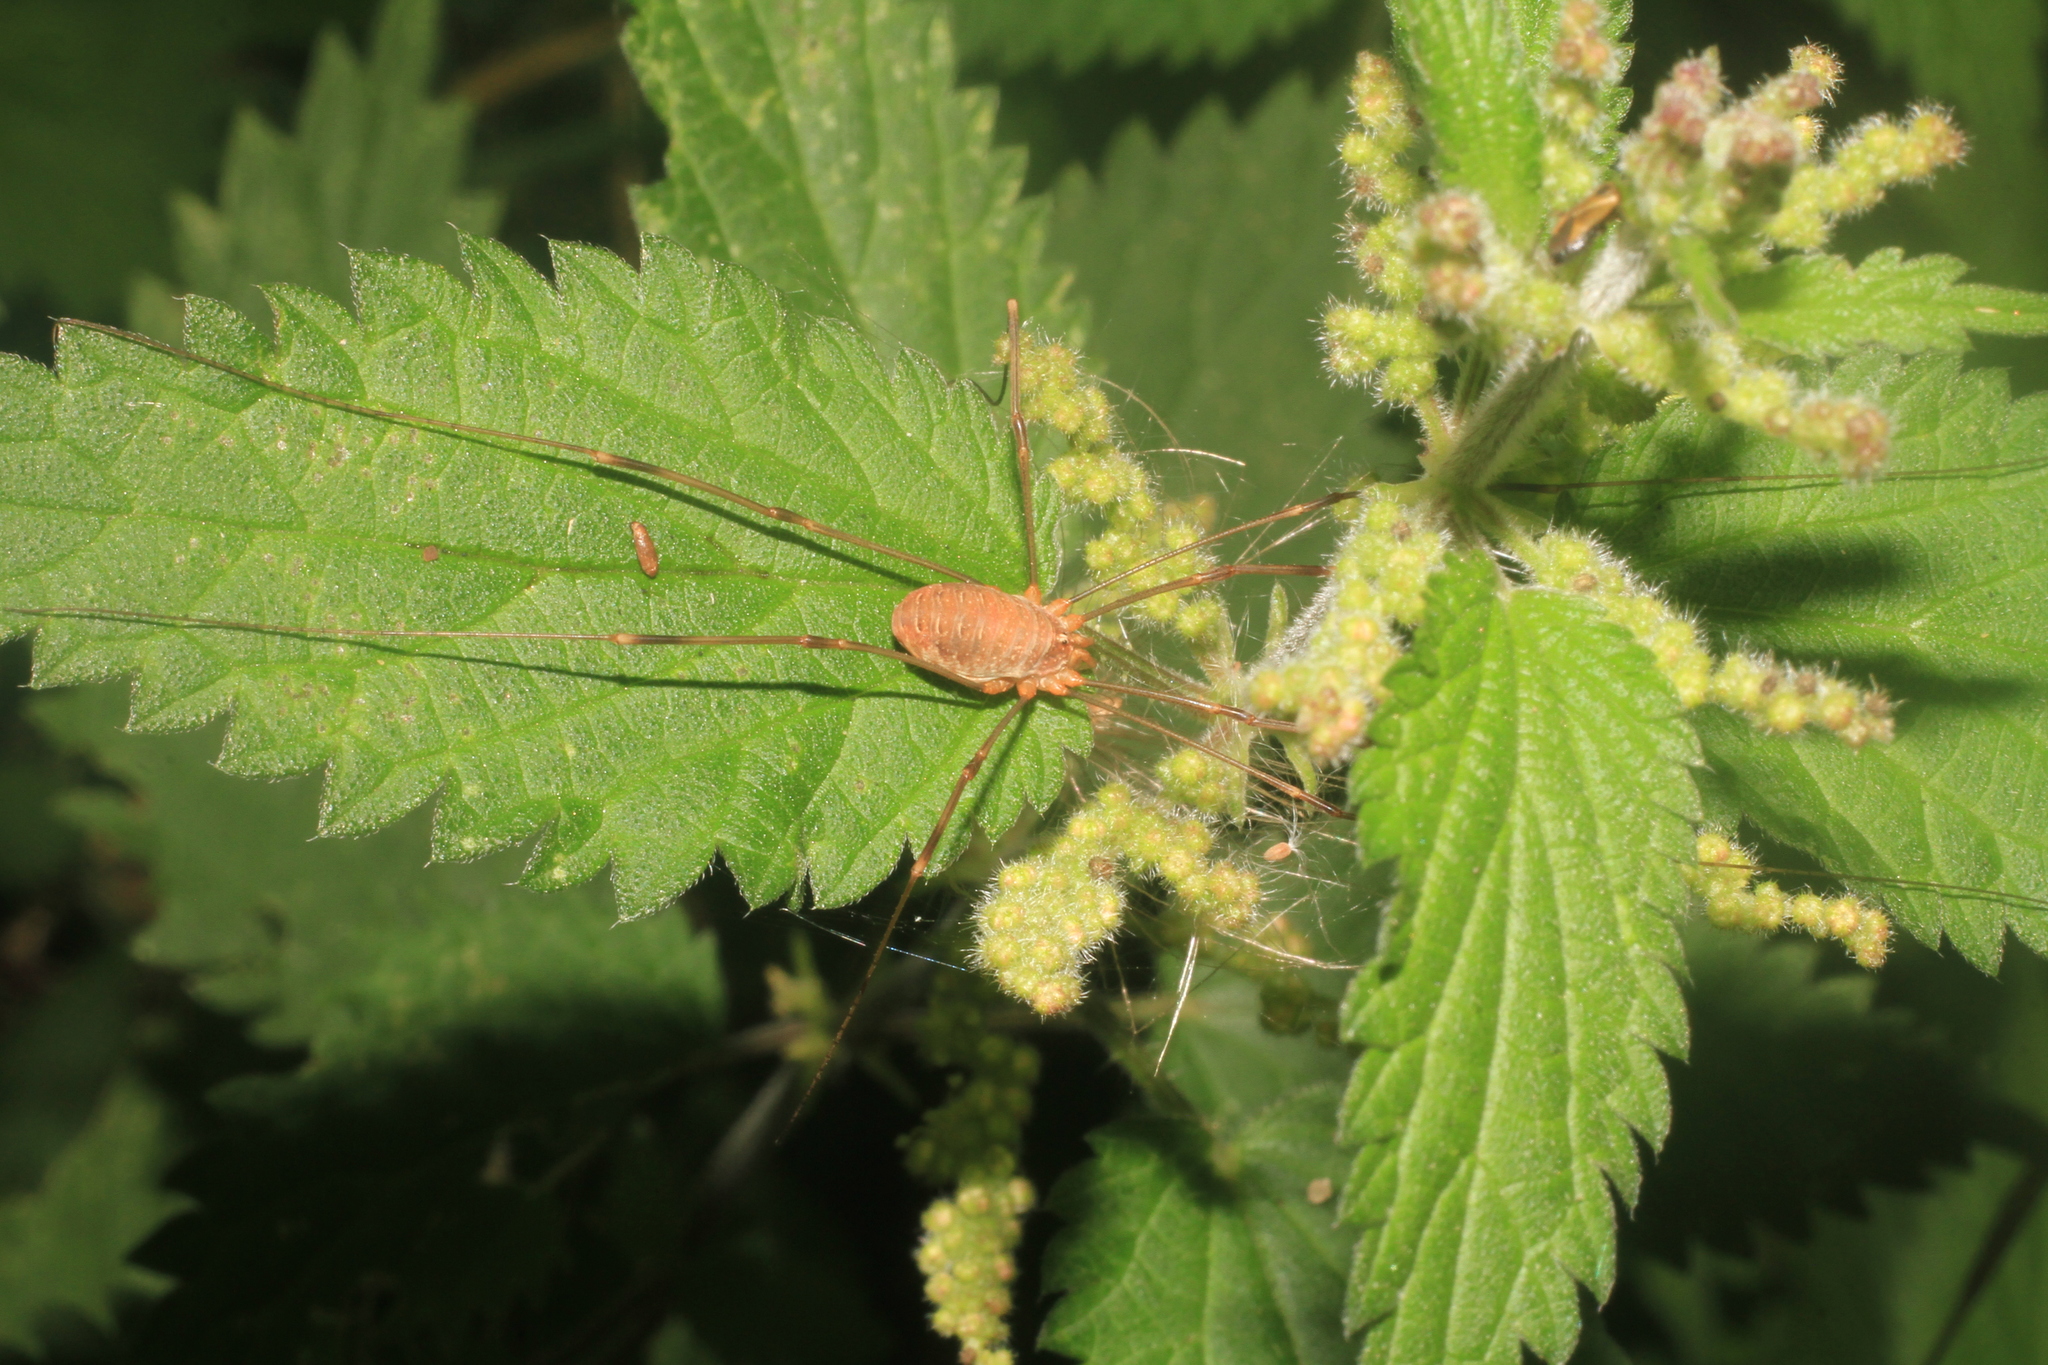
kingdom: Animalia
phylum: Arthropoda
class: Arachnida
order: Opiliones
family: Phalangiidae
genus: Opilio
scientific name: Opilio canestrinii
